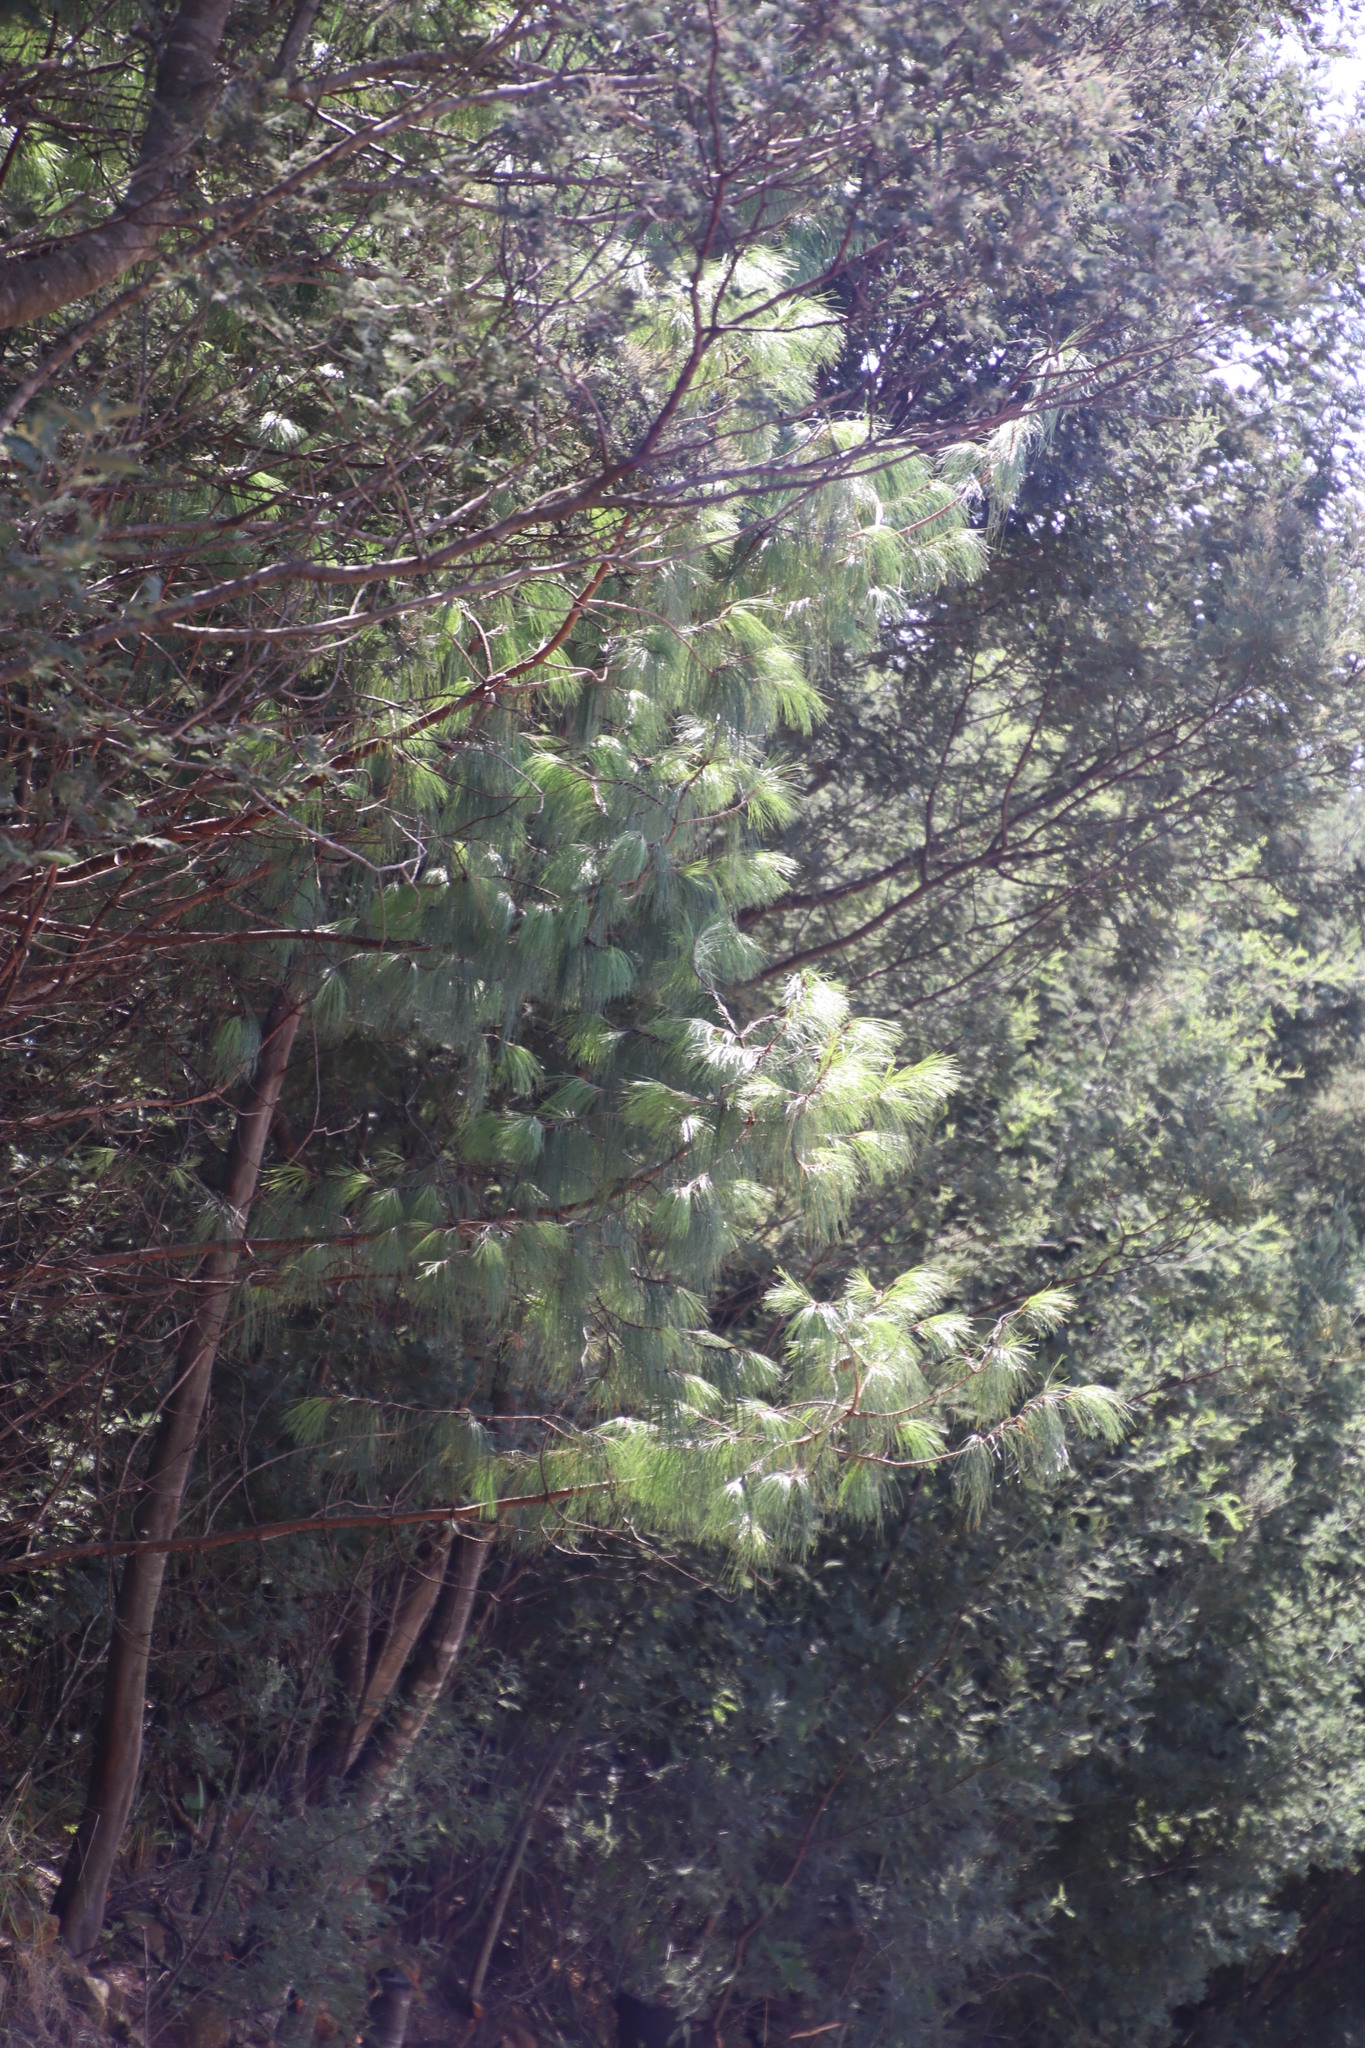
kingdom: Plantae
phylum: Tracheophyta
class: Pinopsida
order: Pinales
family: Pinaceae
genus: Pinus
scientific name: Pinus patula
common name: Mexican weeping pine
